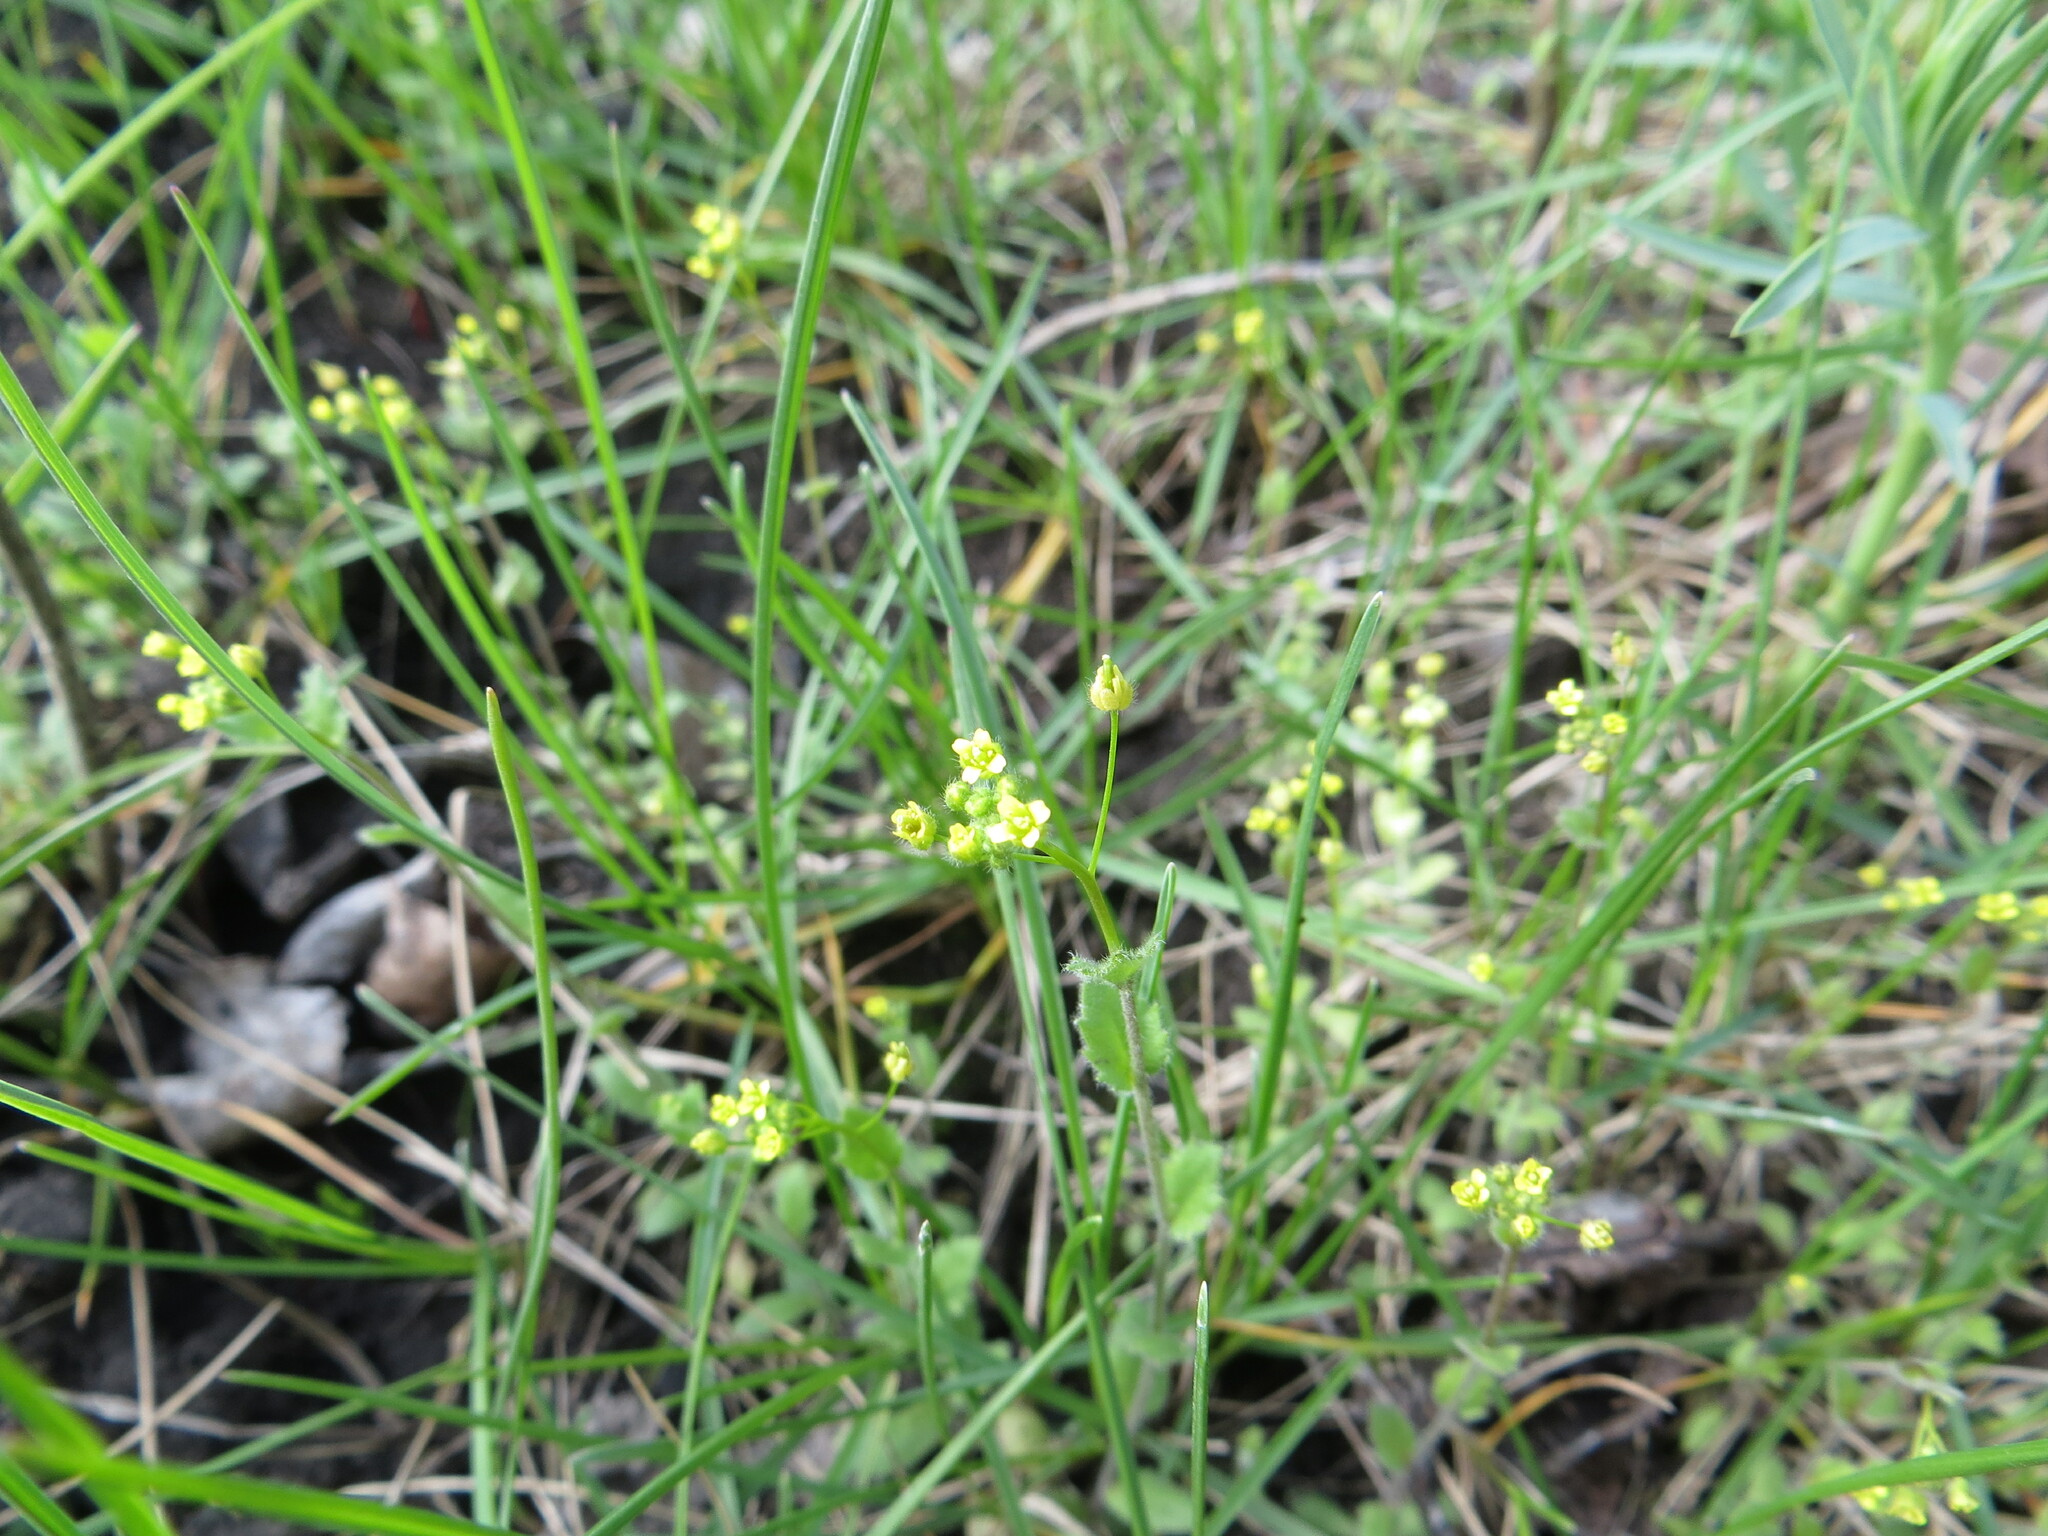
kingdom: Plantae
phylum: Tracheophyta
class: Magnoliopsida
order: Brassicales
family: Brassicaceae
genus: Draba
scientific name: Draba nemorosa
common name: Wood whitlow-grass
